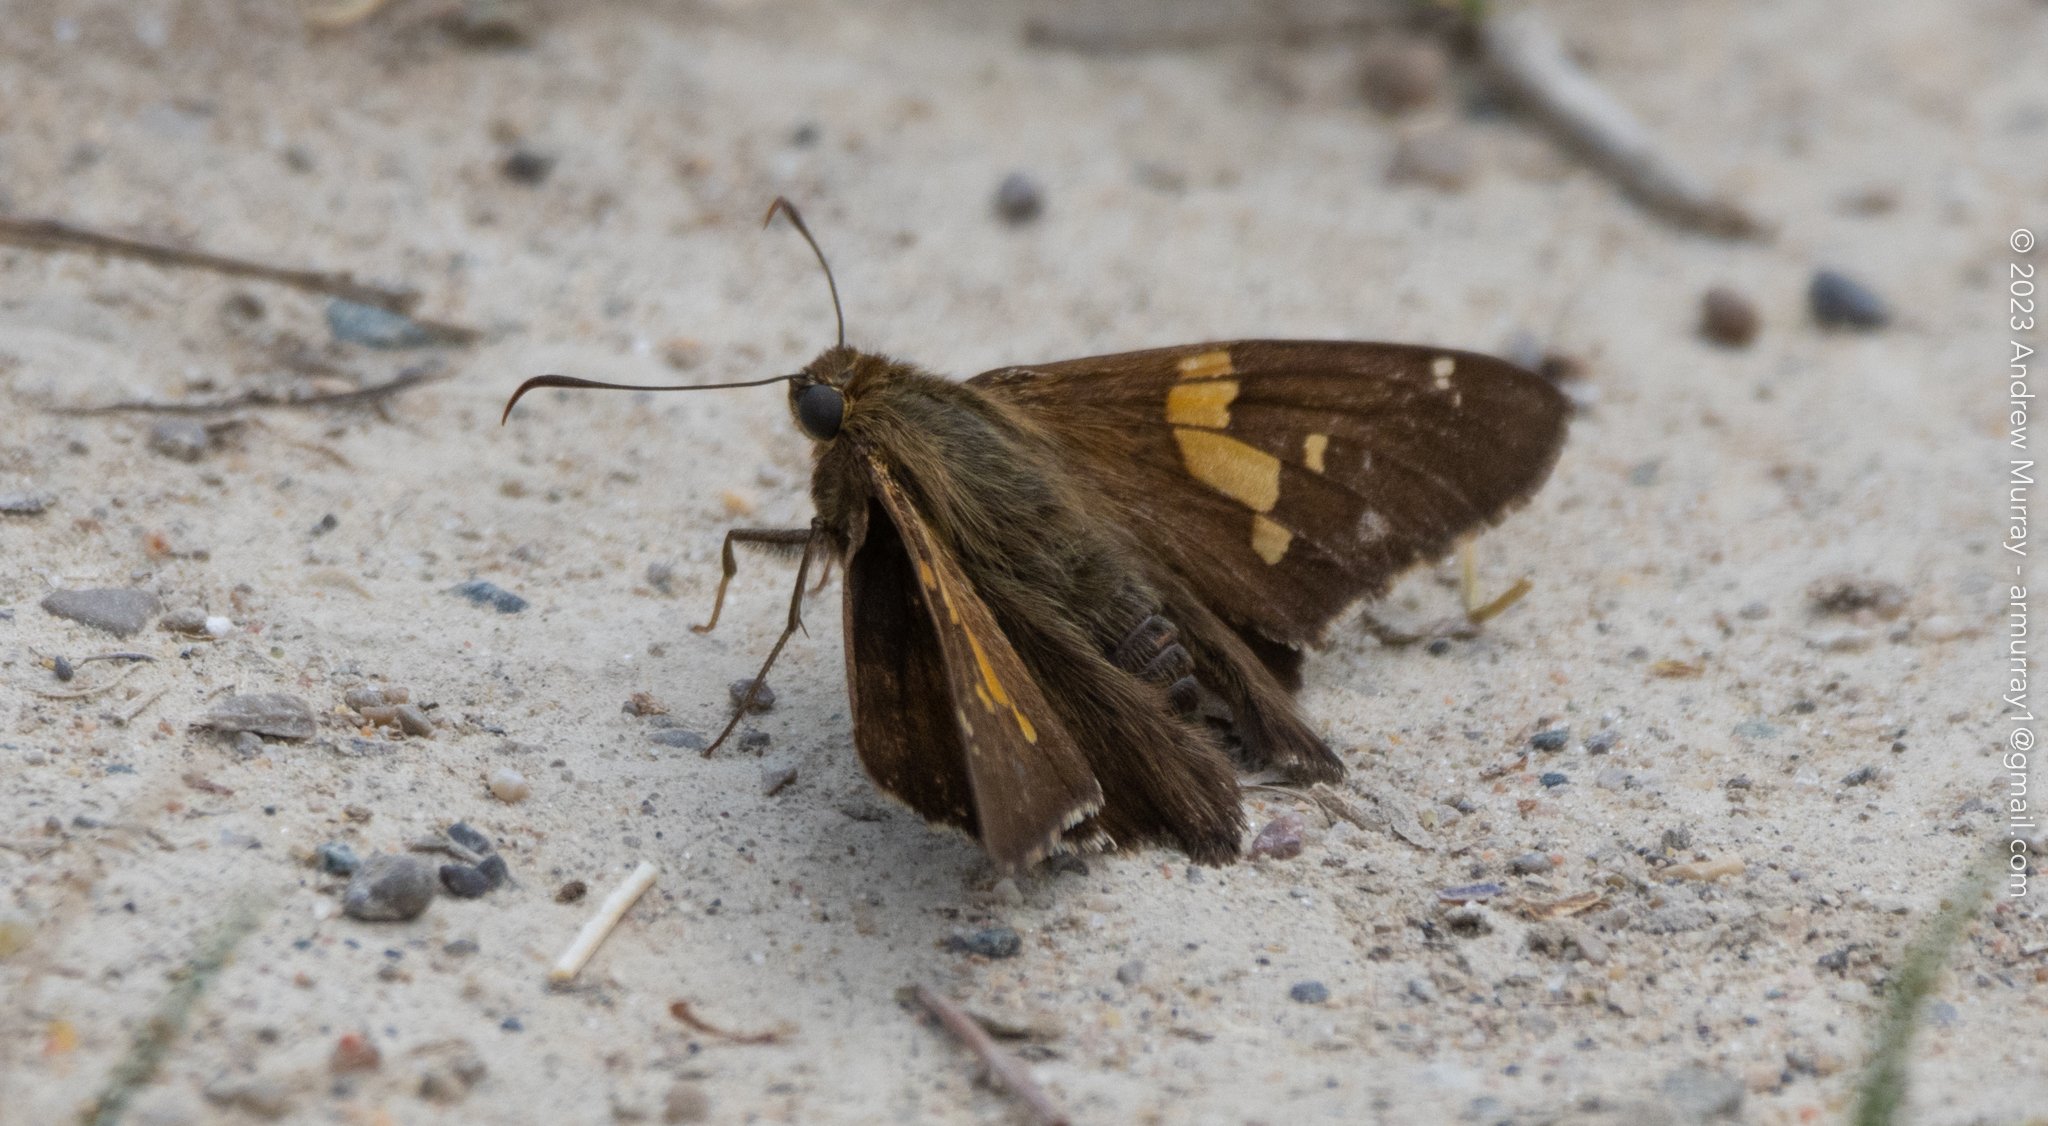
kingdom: Animalia
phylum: Arthropoda
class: Insecta
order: Lepidoptera
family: Hesperiidae
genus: Epargyreus
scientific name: Epargyreus clarus
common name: Silver-spotted skipper
